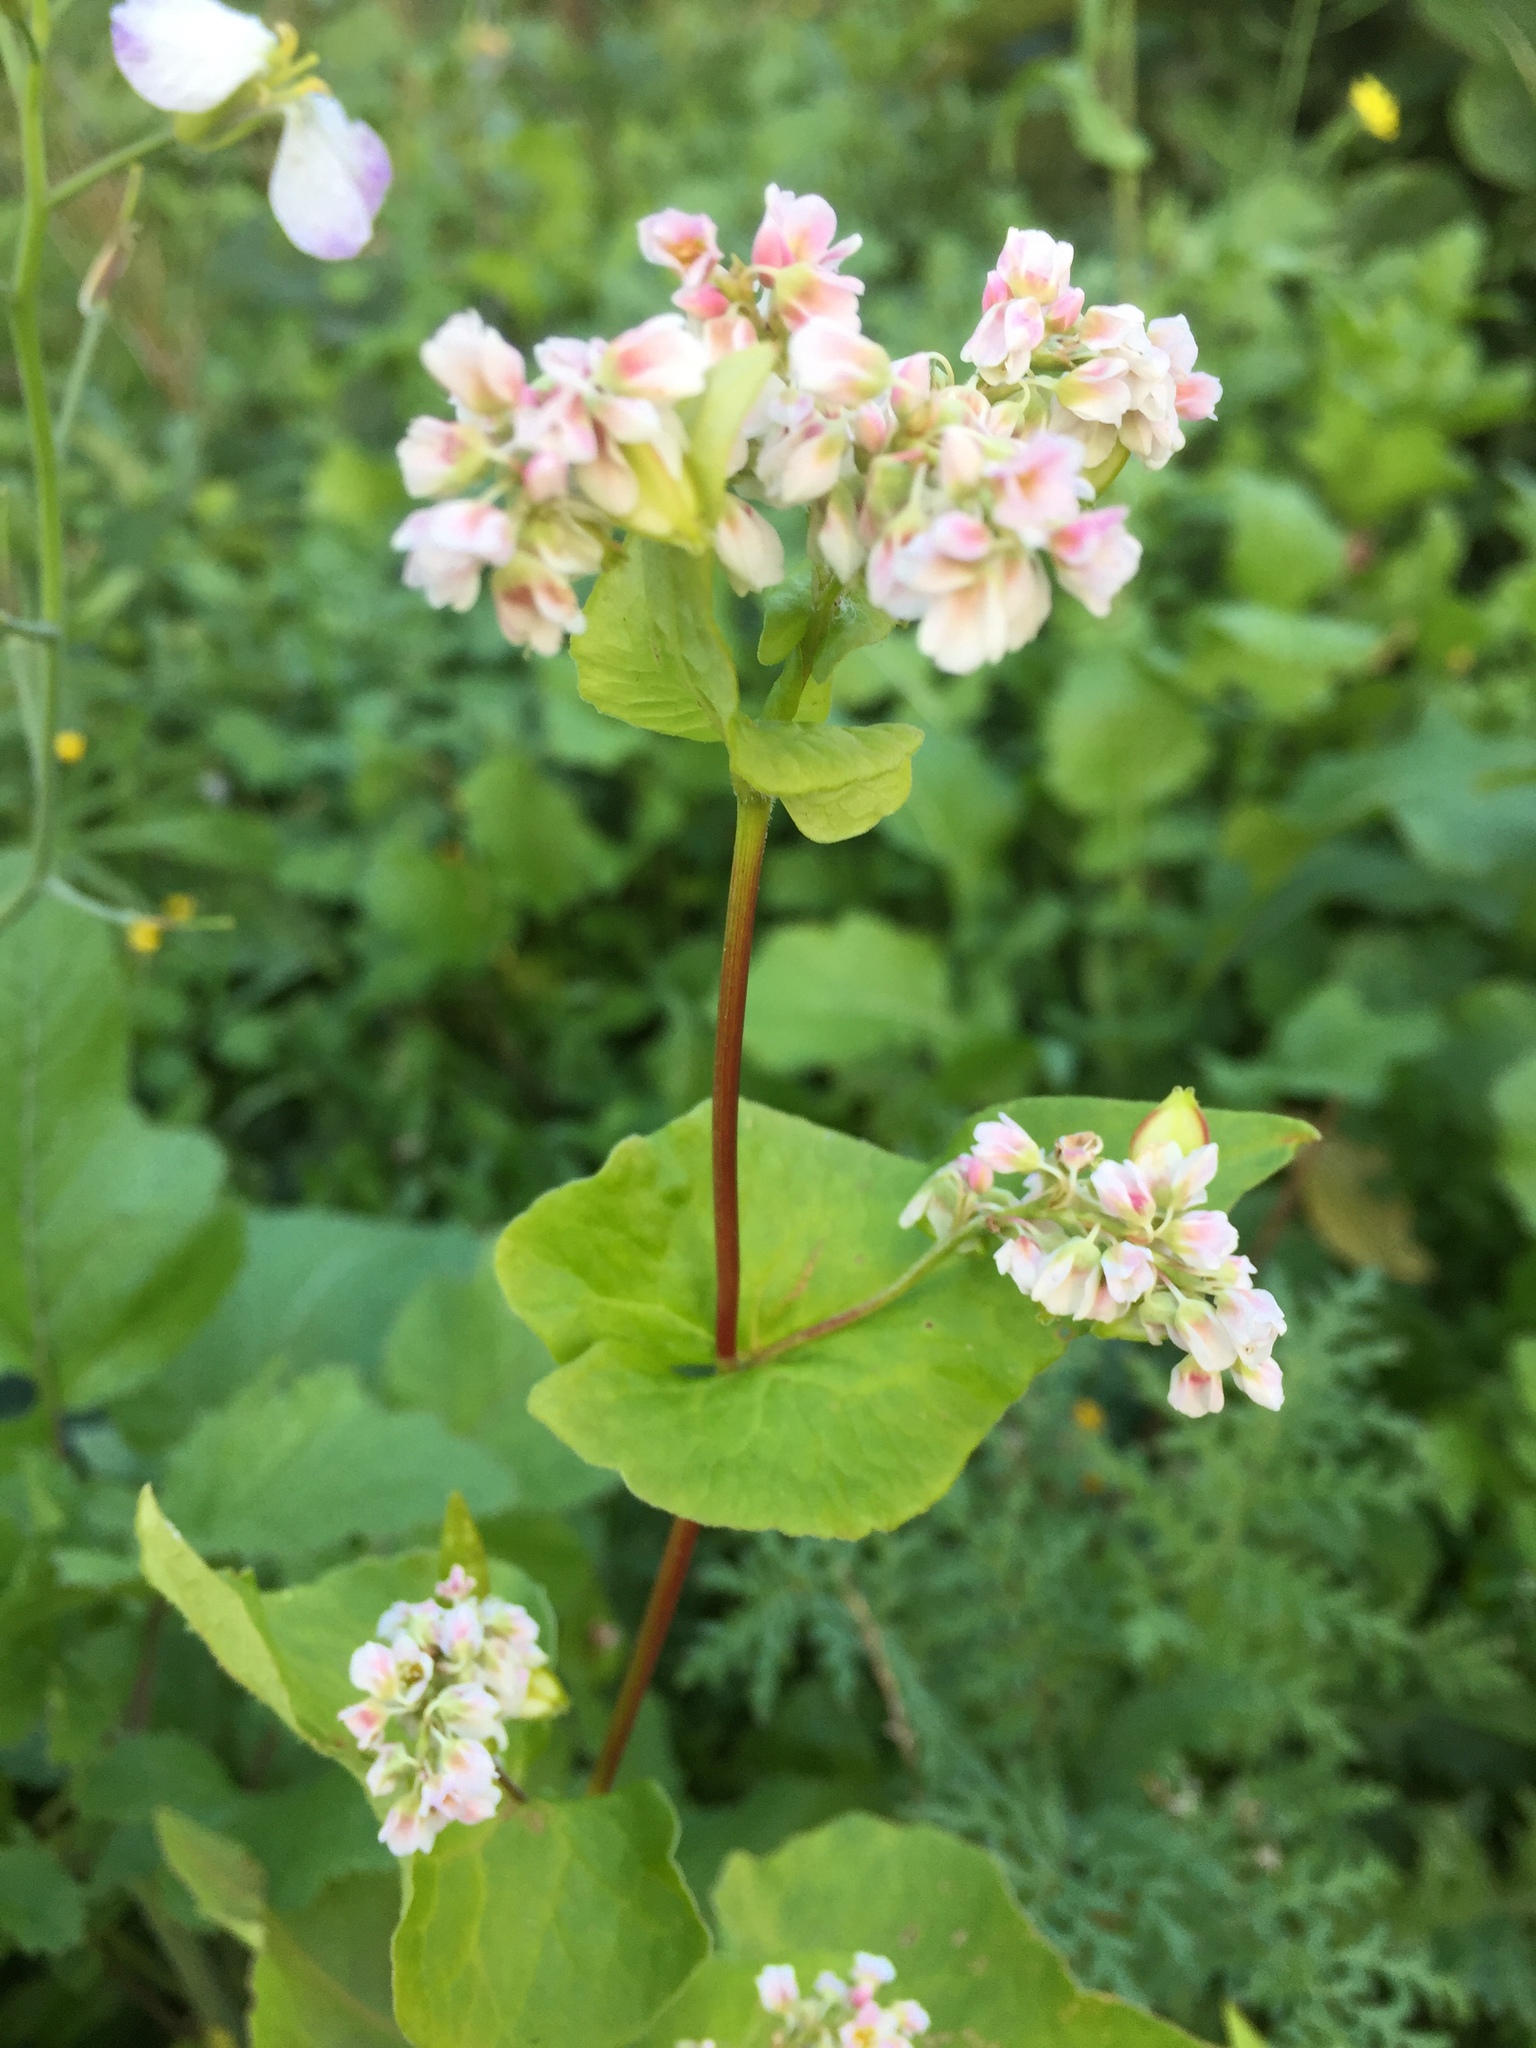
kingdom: Plantae
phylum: Tracheophyta
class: Magnoliopsida
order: Caryophyllales
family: Polygonaceae
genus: Fagopyrum
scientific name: Fagopyrum esculentum
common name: Buckwheat
